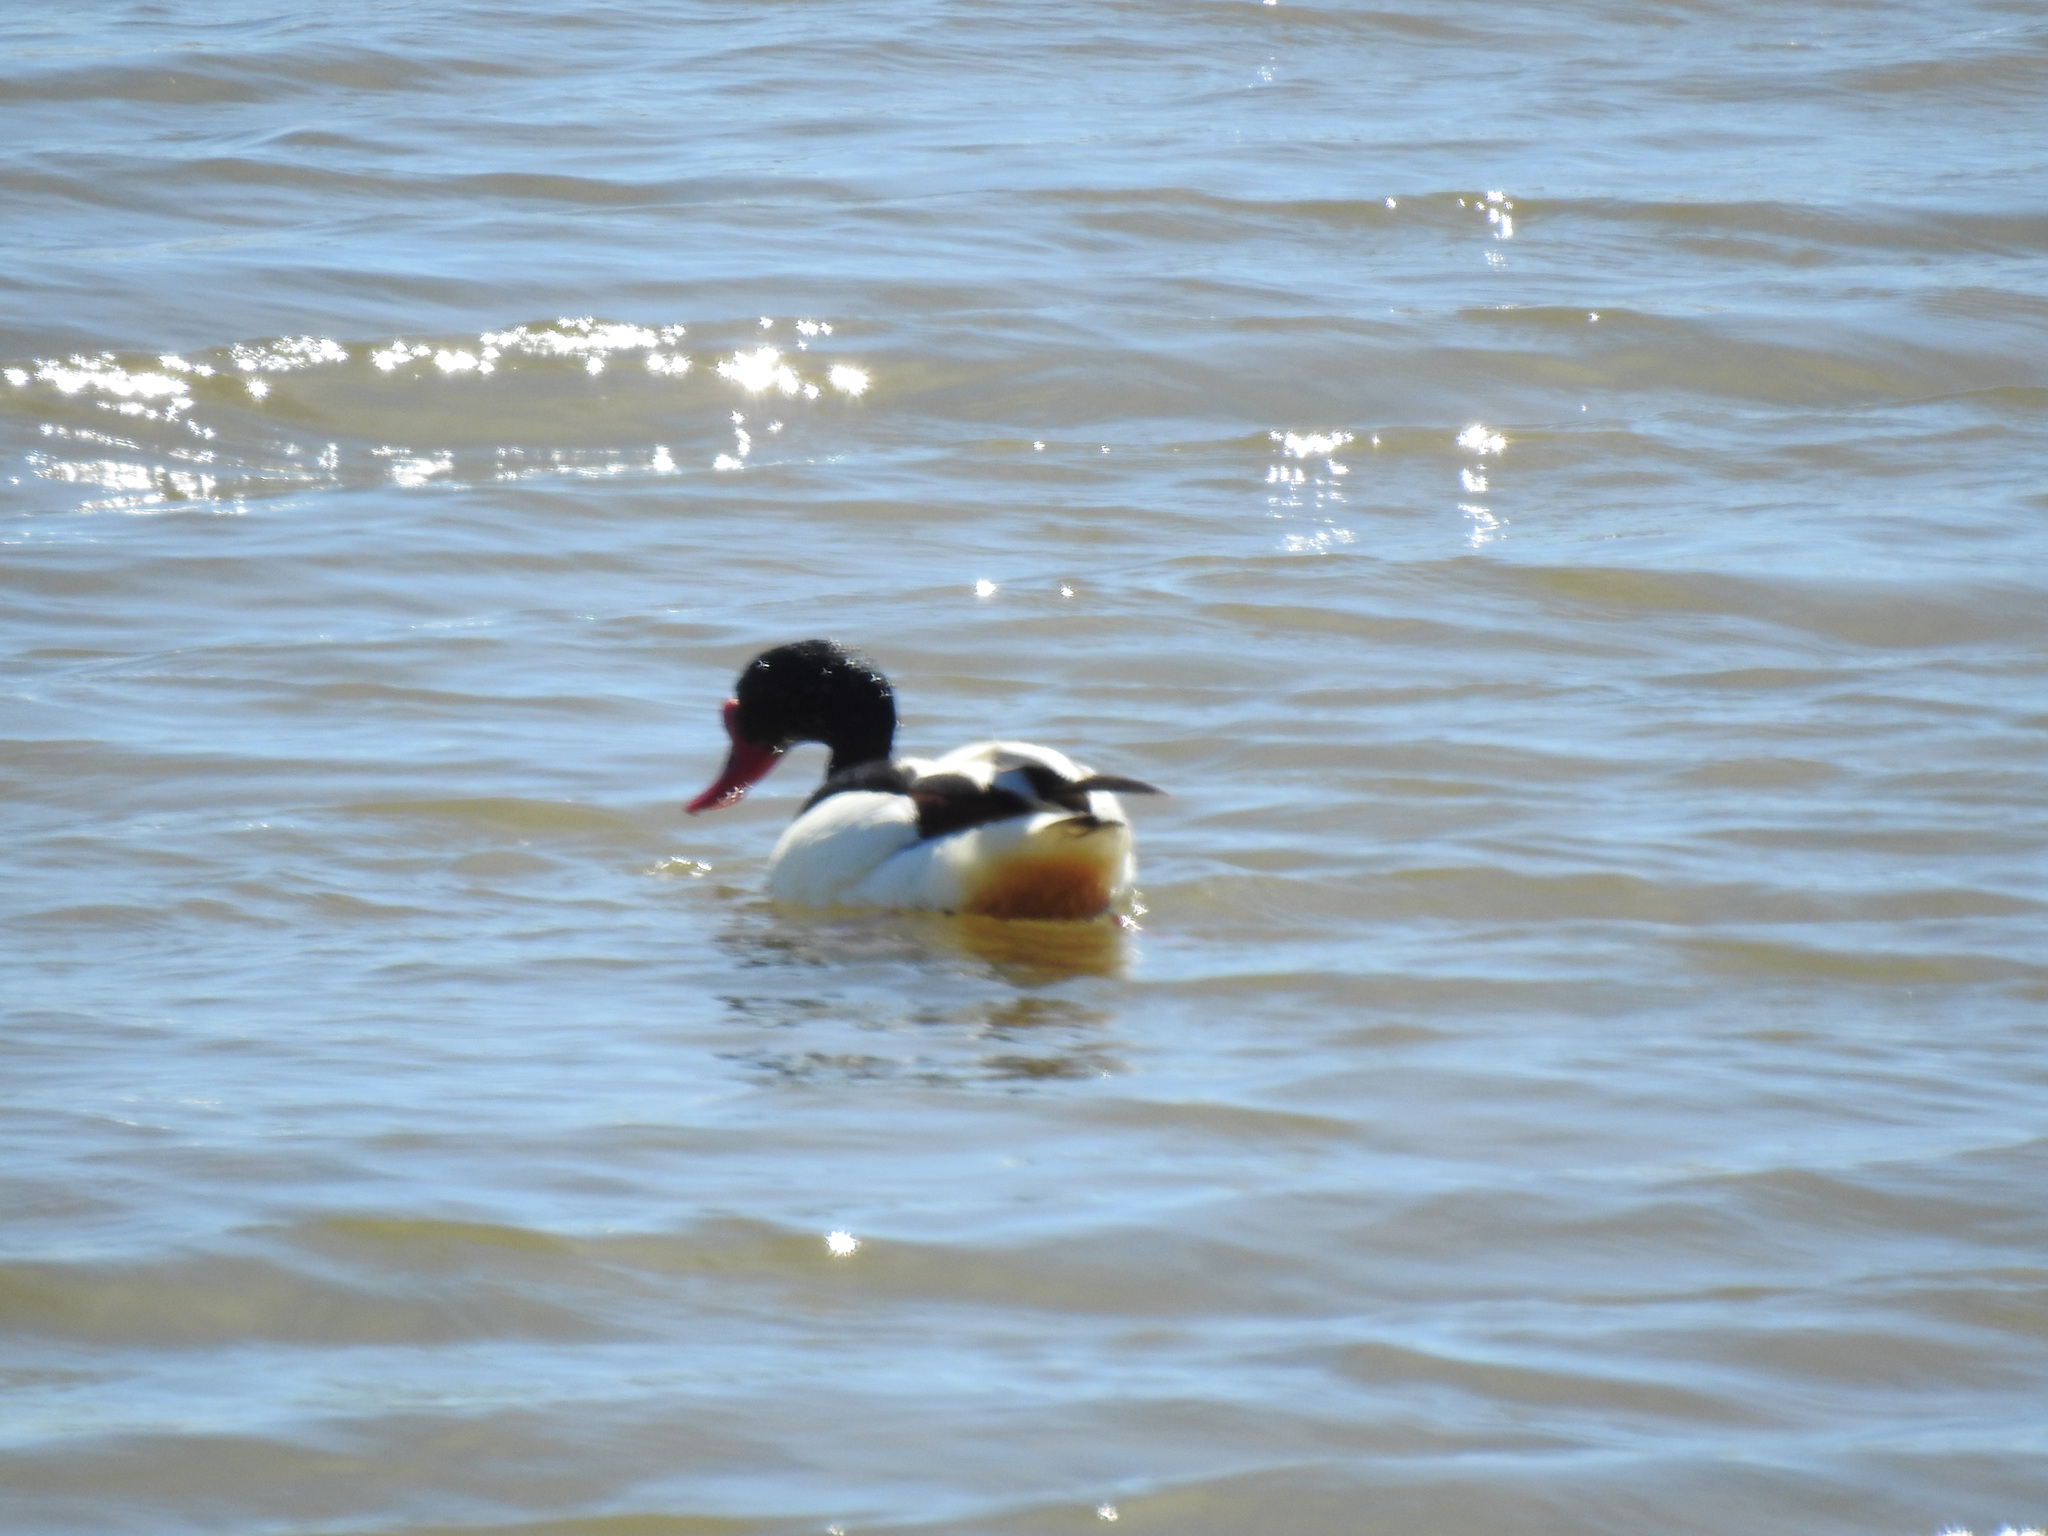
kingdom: Animalia
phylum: Chordata
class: Aves
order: Anseriformes
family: Anatidae
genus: Tadorna
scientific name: Tadorna tadorna
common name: Common shelduck
